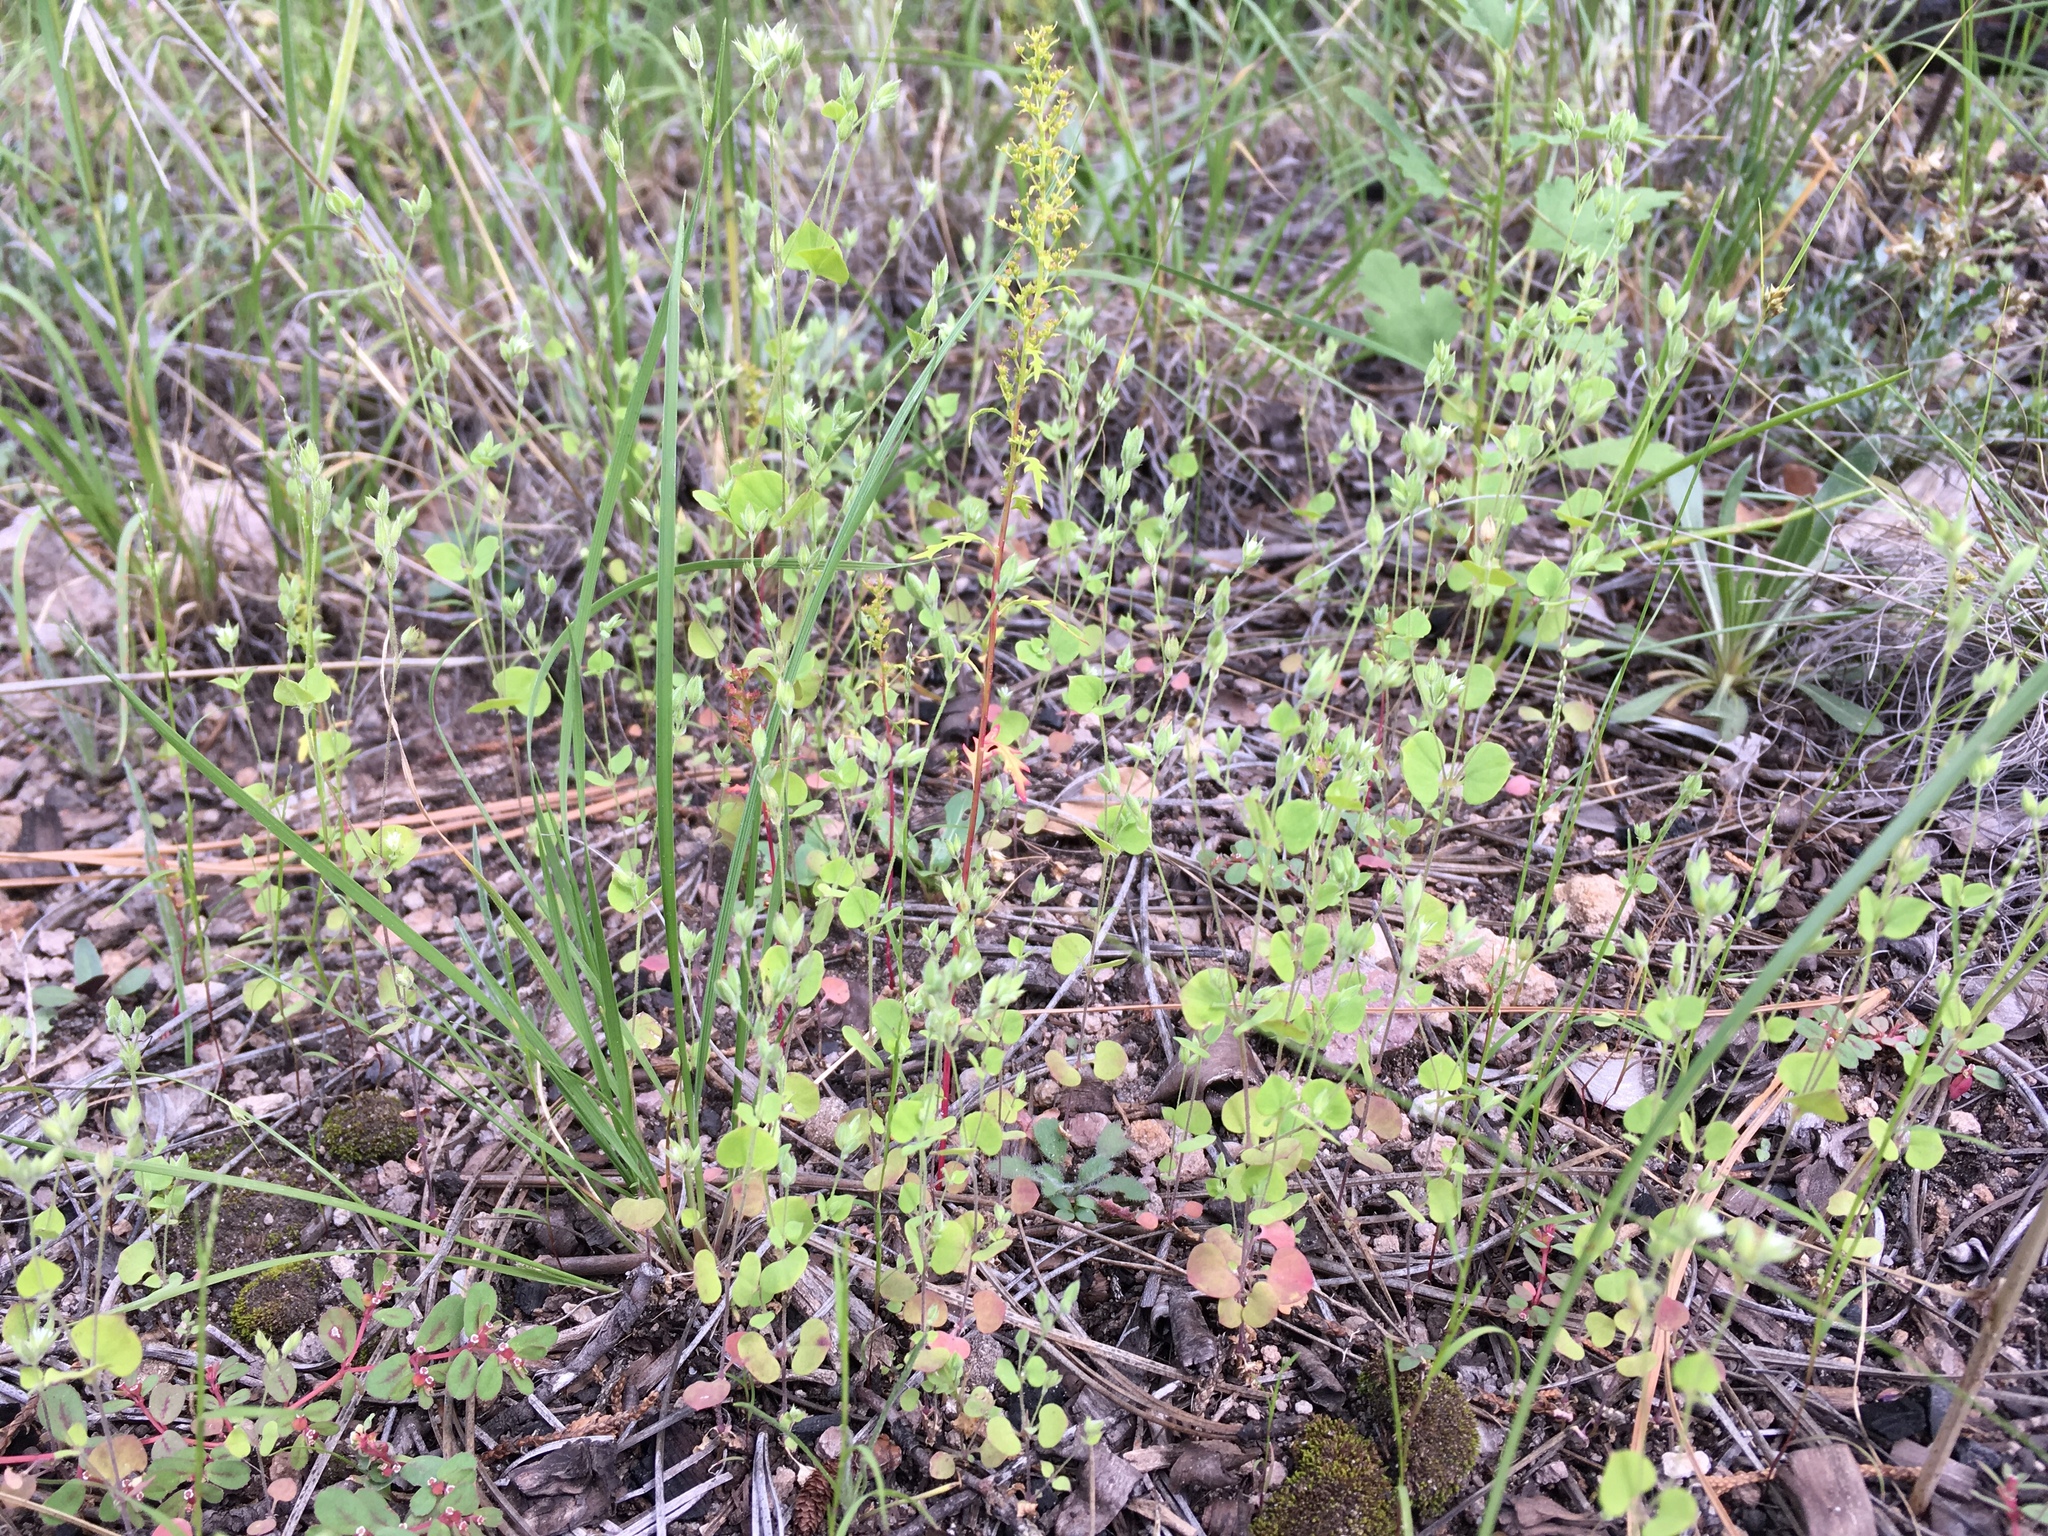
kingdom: Plantae
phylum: Tracheophyta
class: Magnoliopsida
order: Caryophyllales
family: Caryophyllaceae
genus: Drymaria
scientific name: Drymaria glandulosa
